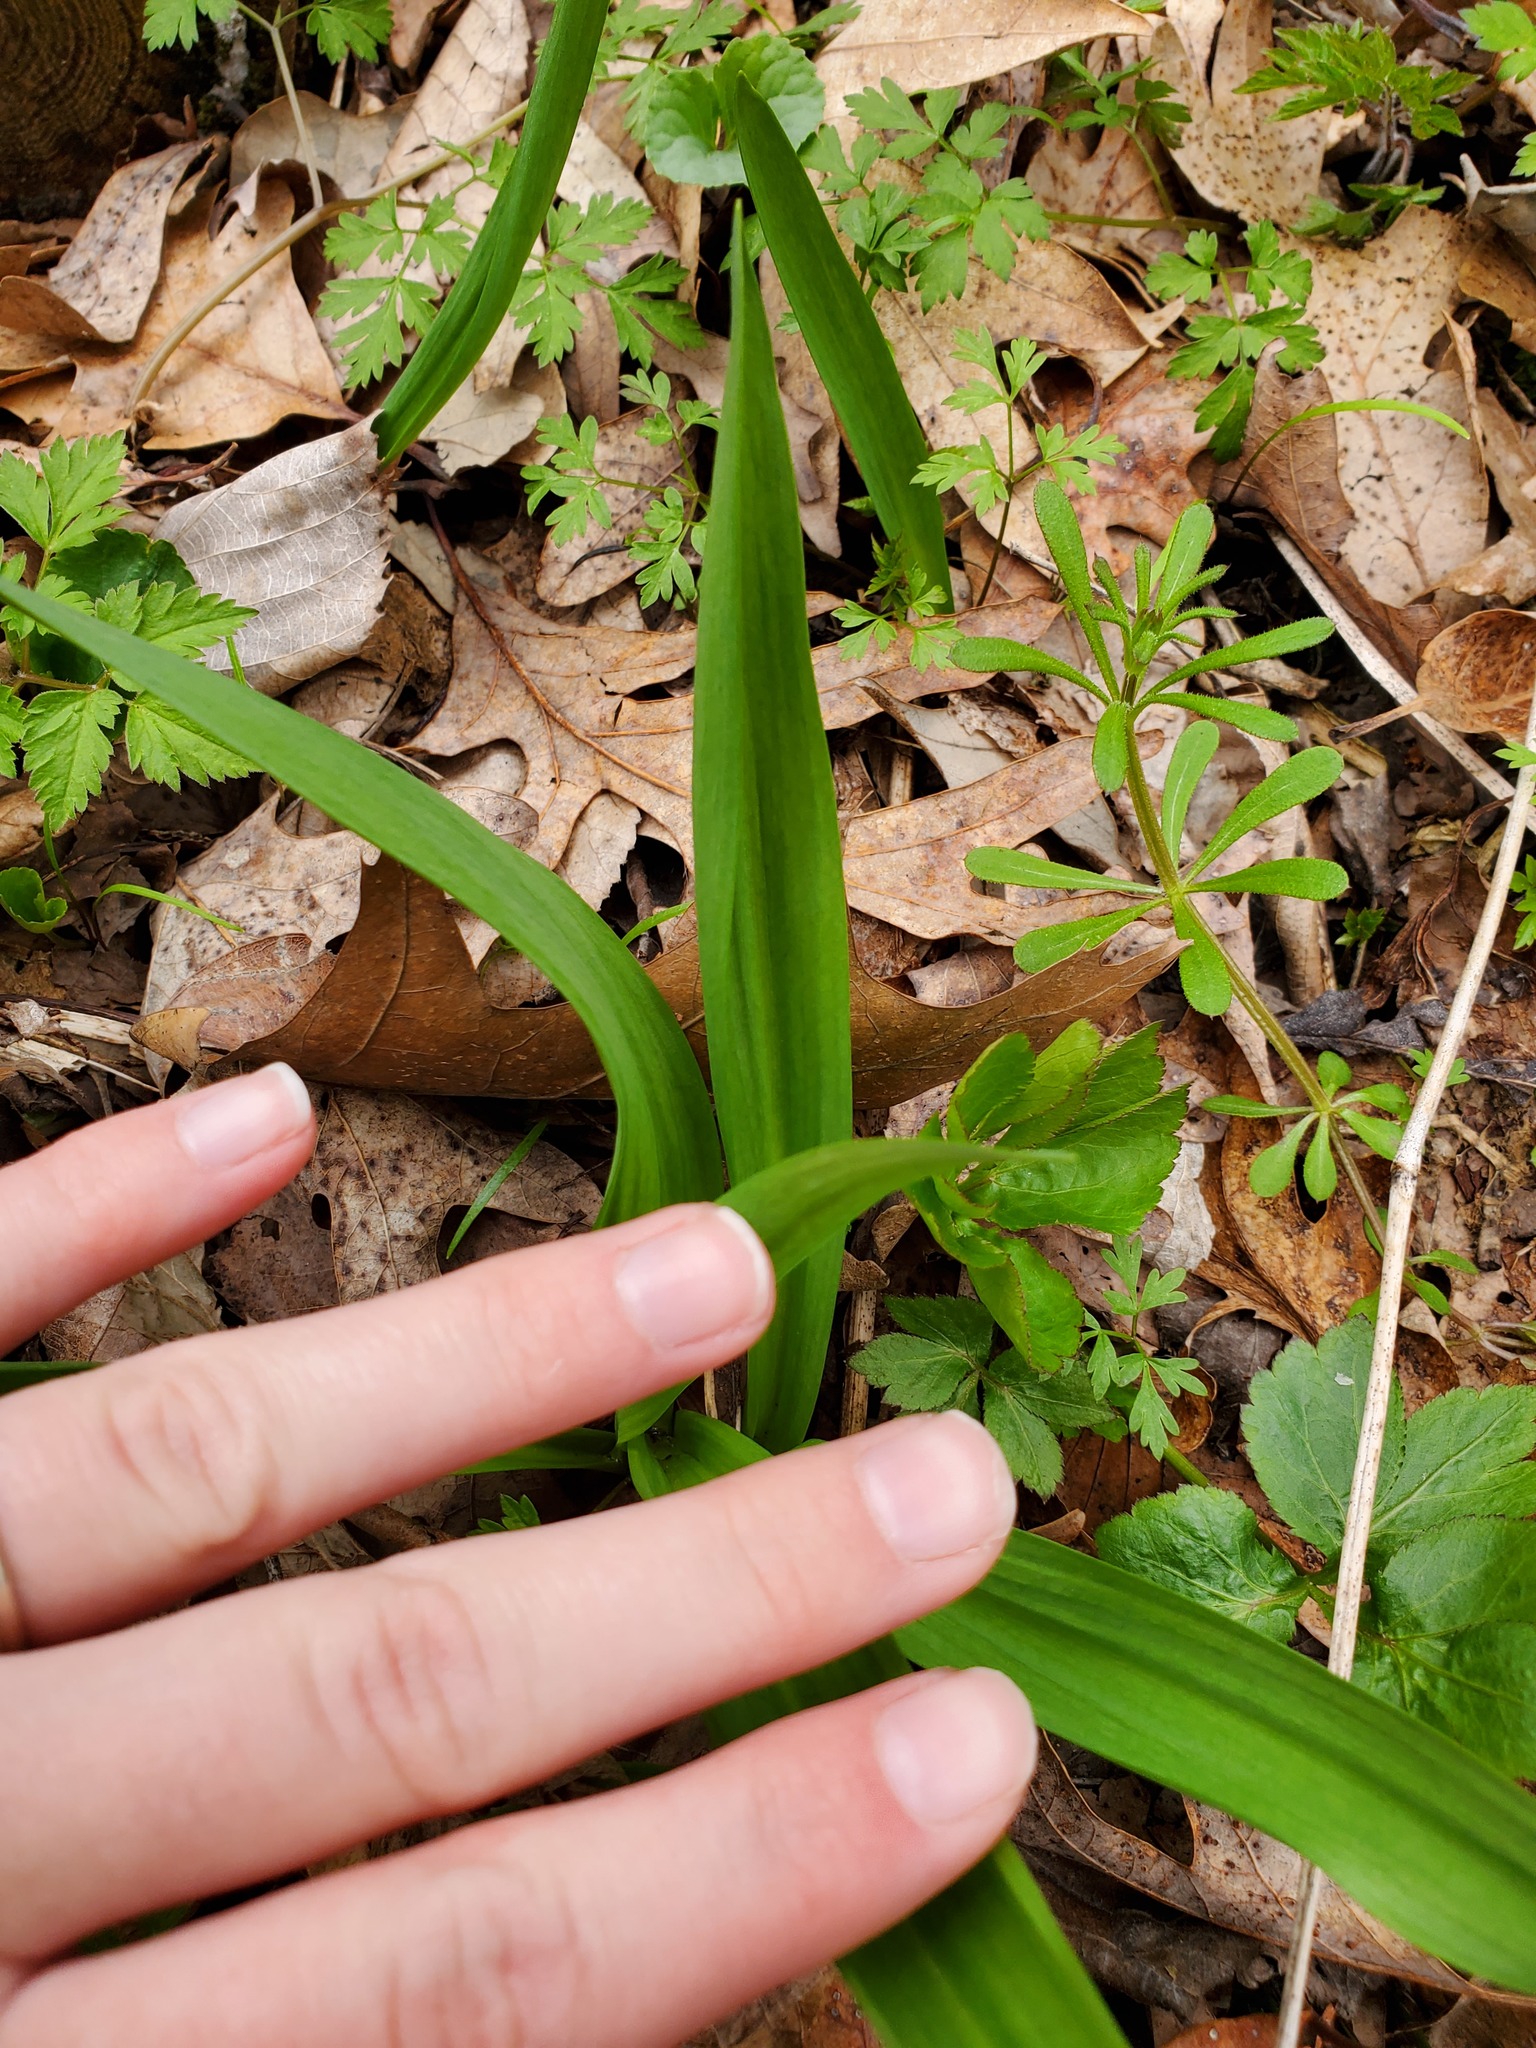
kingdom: Plantae
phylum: Tracheophyta
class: Liliopsida
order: Asparagales
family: Amaryllidaceae
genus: Allium
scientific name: Allium tricoccum
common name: Ramp
